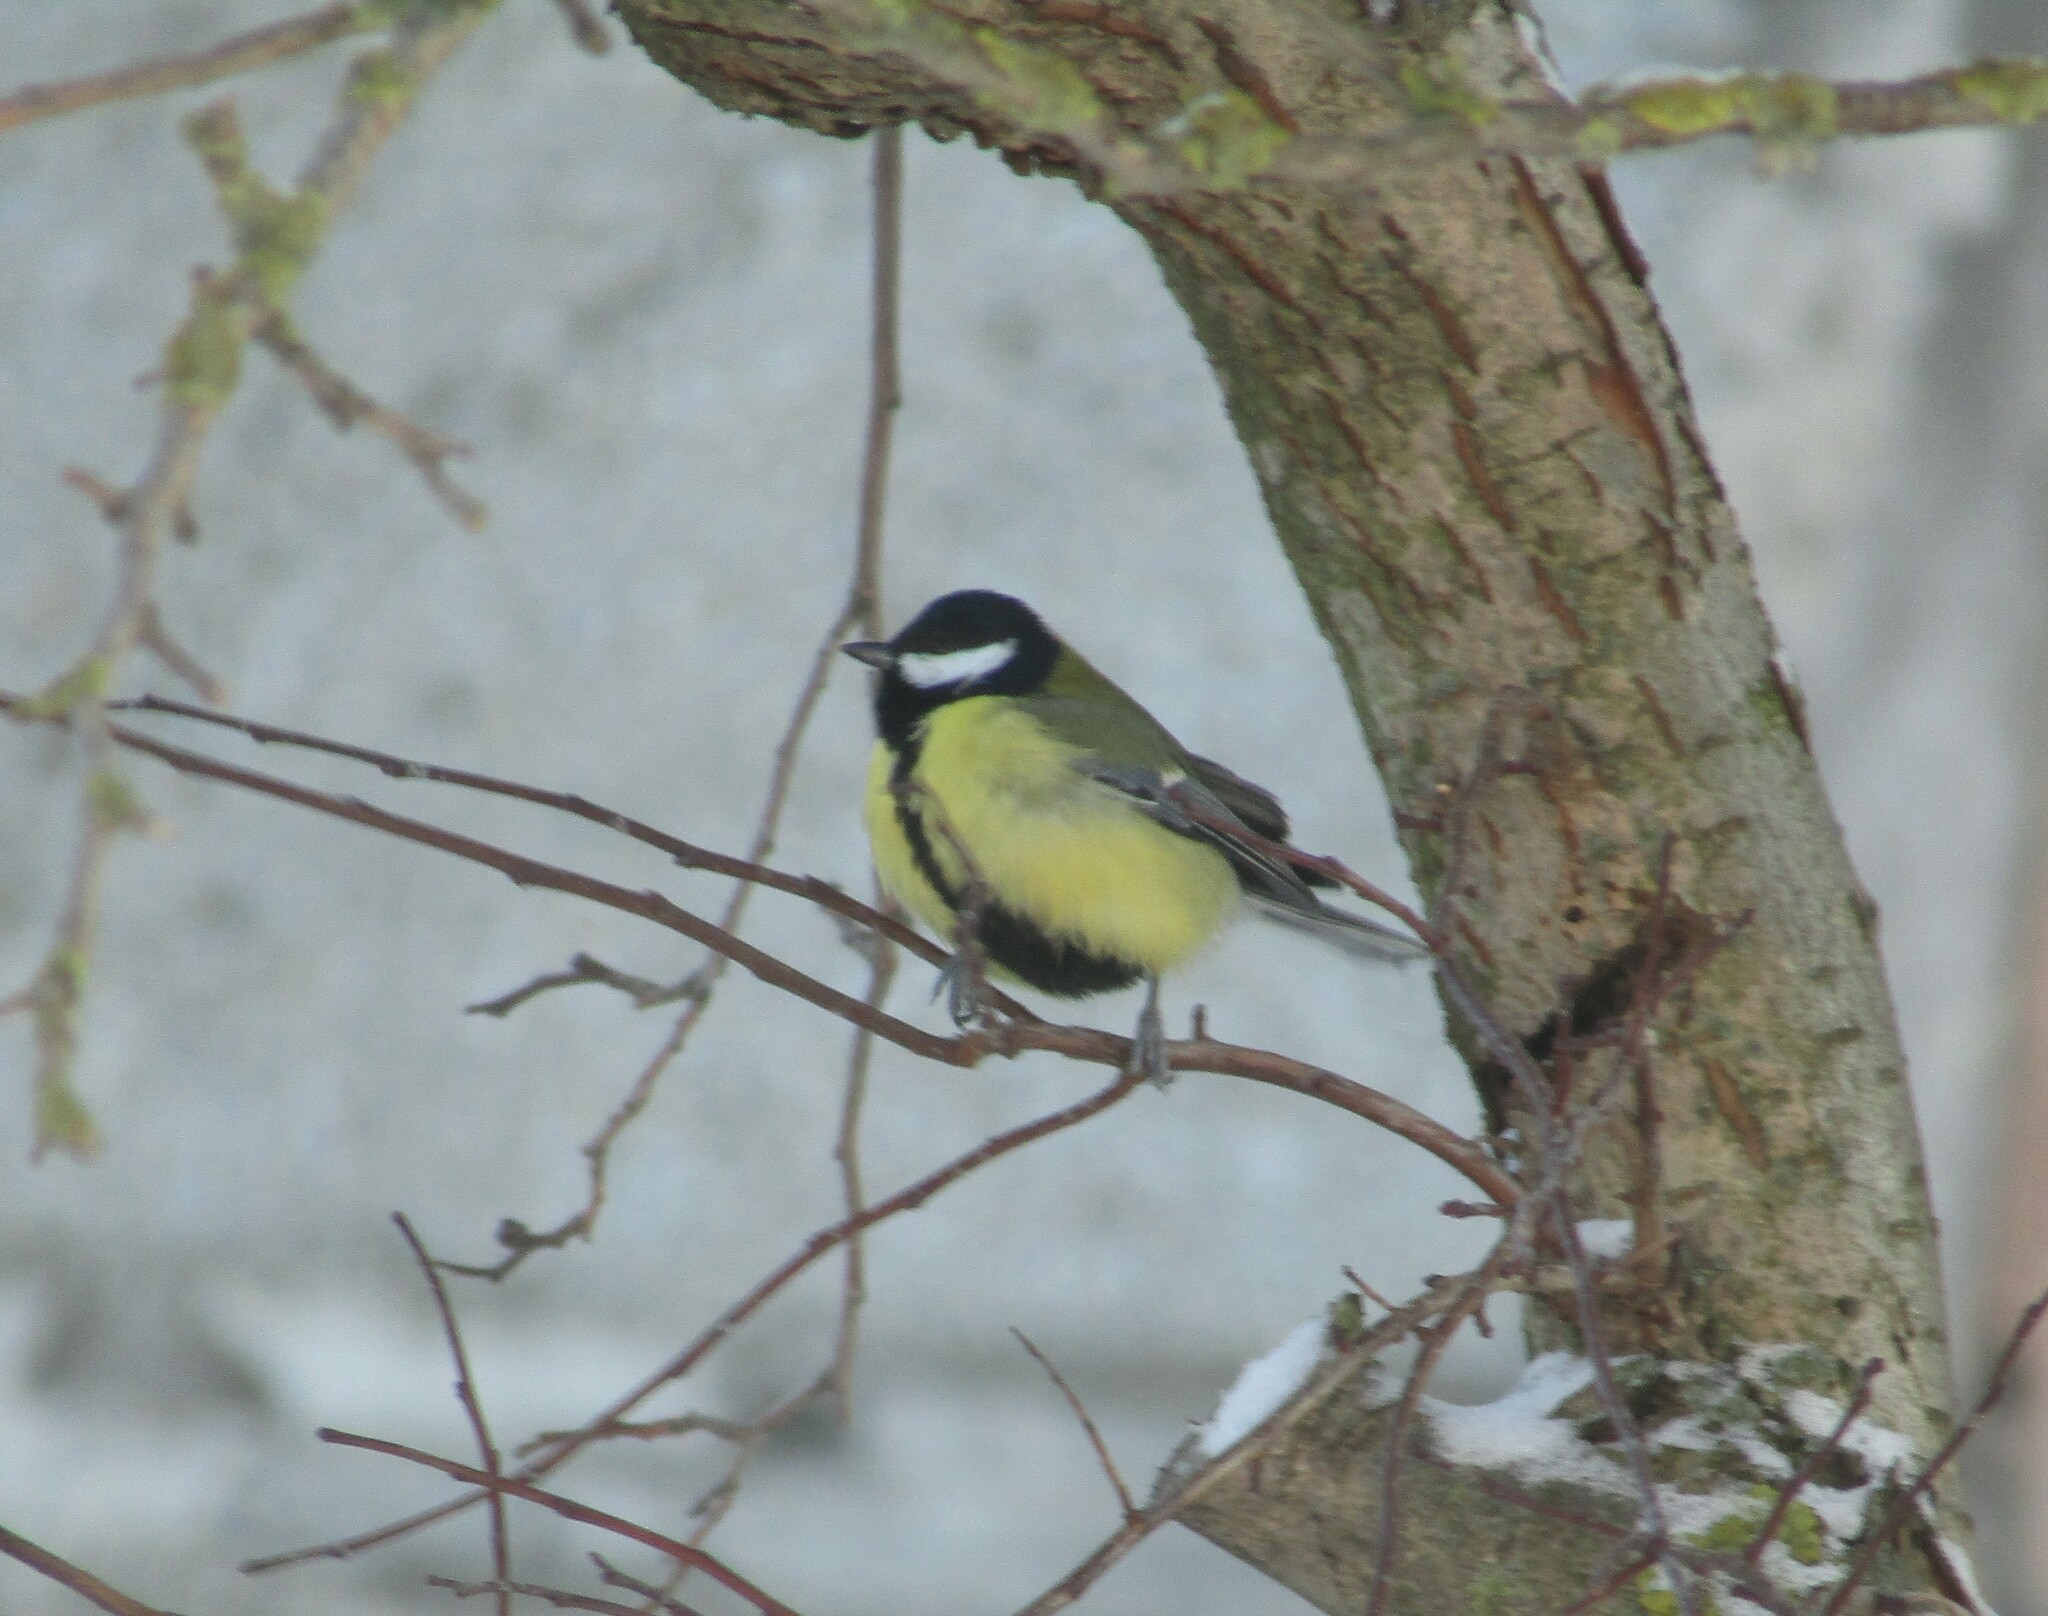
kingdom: Animalia
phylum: Chordata
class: Aves
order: Passeriformes
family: Paridae
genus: Parus
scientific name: Parus major
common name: Great tit
